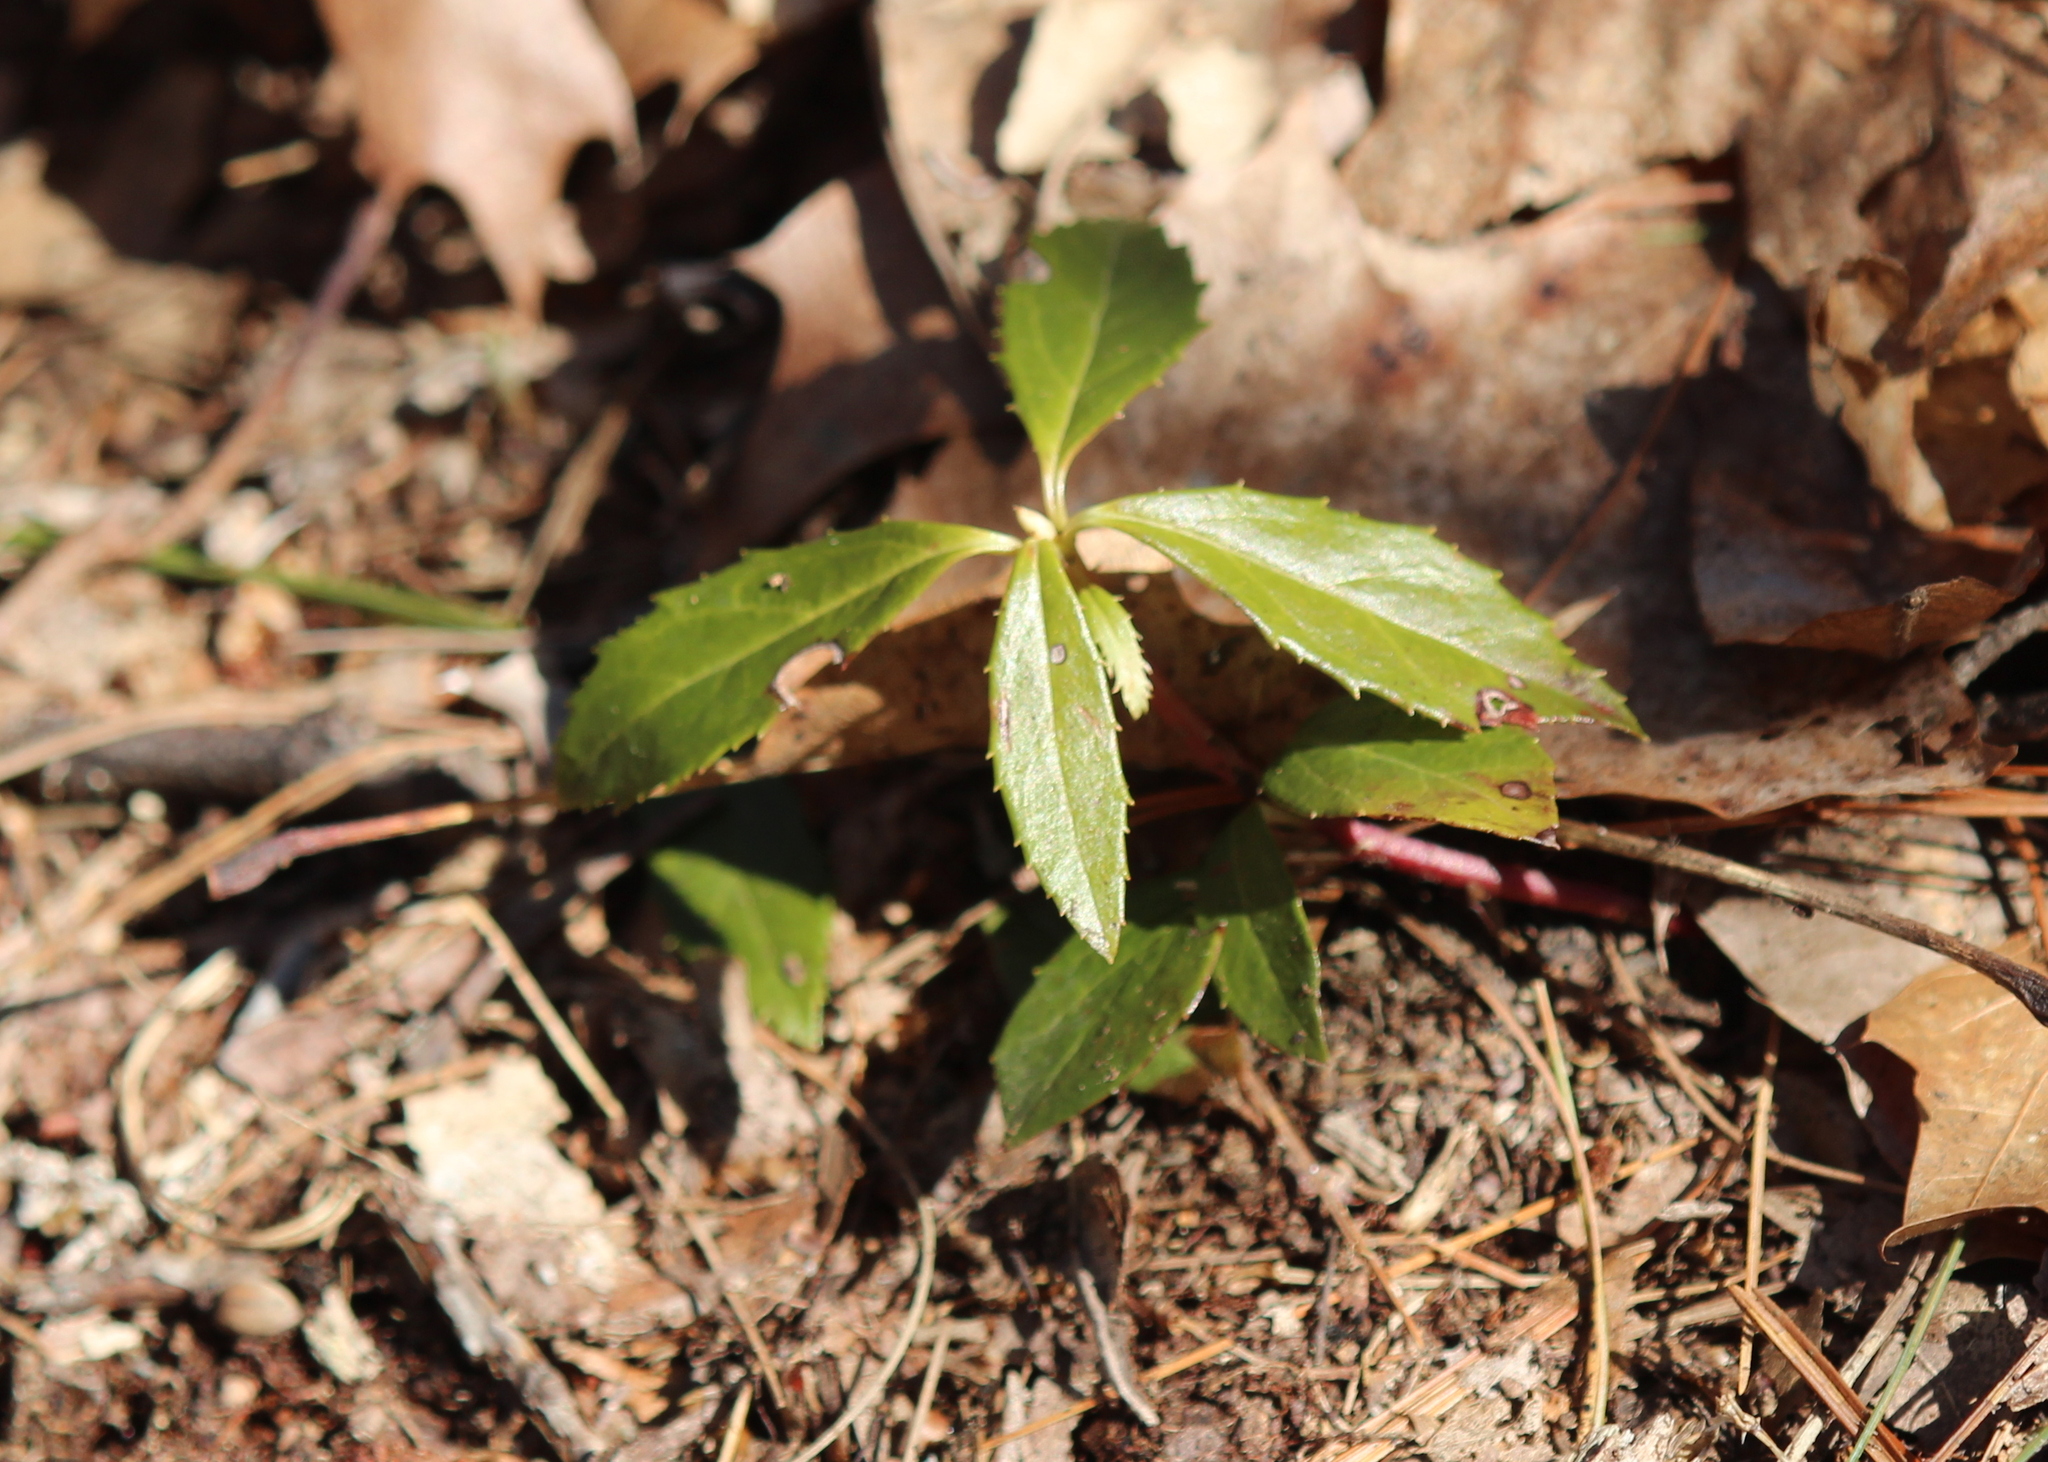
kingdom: Plantae
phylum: Tracheophyta
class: Magnoliopsida
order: Ericales
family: Ericaceae
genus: Chimaphila
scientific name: Chimaphila umbellata
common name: Pipsissewa
